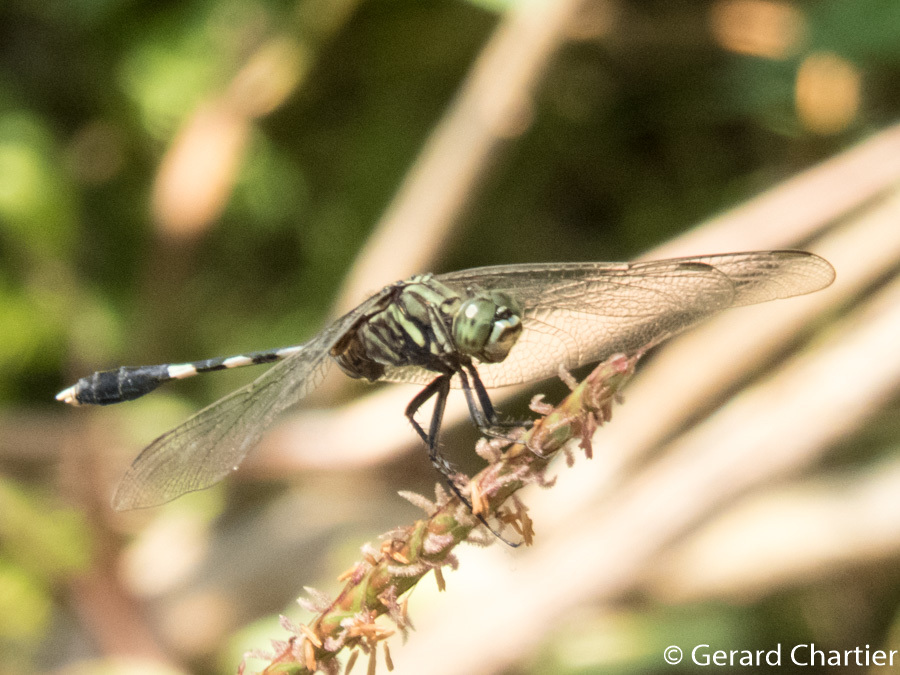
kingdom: Animalia
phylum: Arthropoda
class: Insecta
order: Odonata
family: Libellulidae
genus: Orthetrum
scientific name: Orthetrum sabina
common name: Slender skimmer
